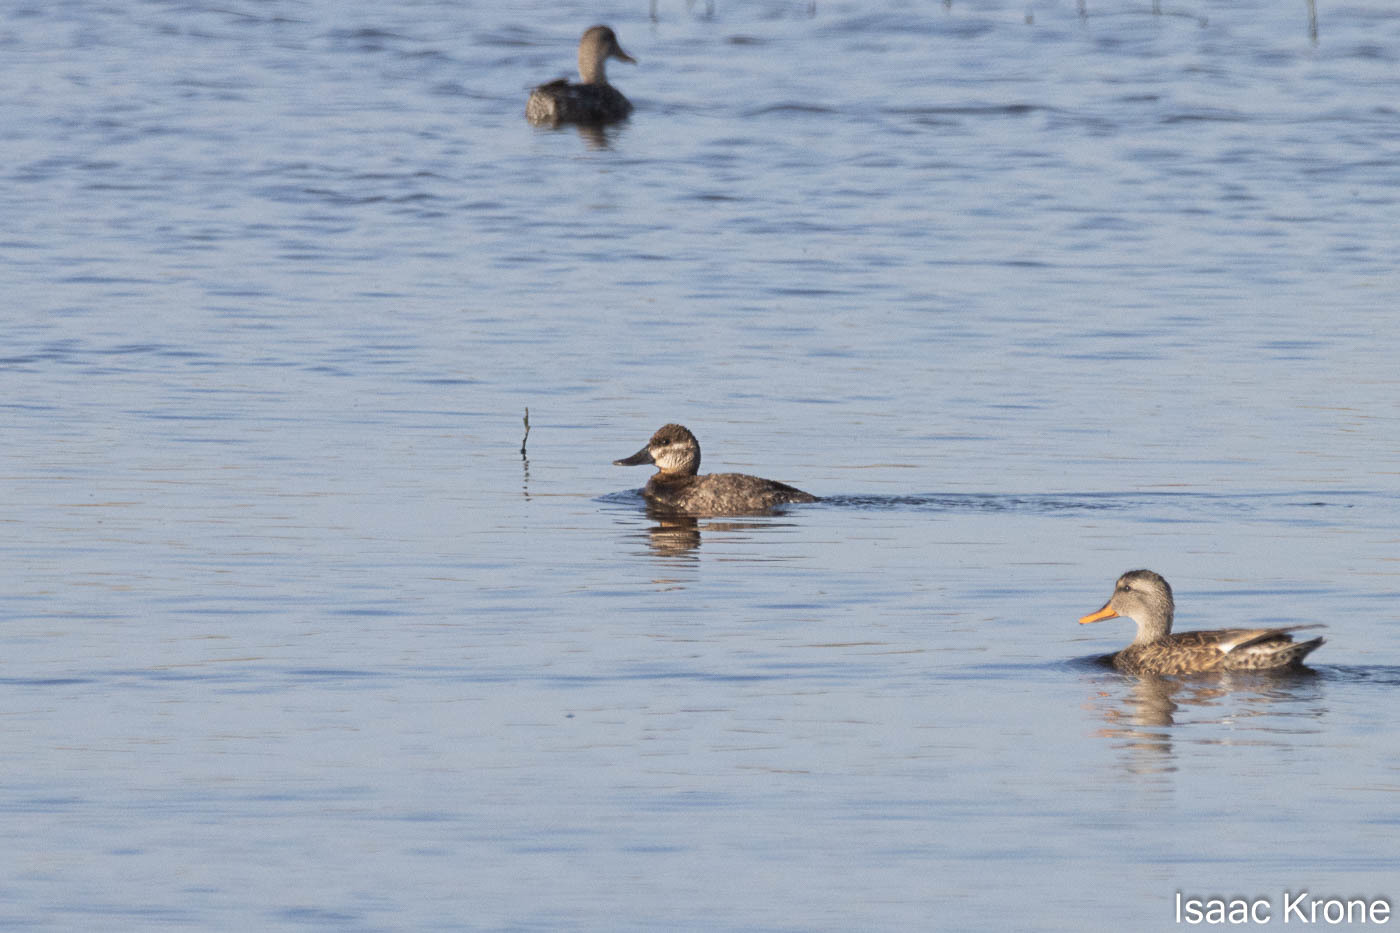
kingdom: Animalia
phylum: Chordata
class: Aves
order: Anseriformes
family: Anatidae
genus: Oxyura
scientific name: Oxyura jamaicensis
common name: Ruddy duck
